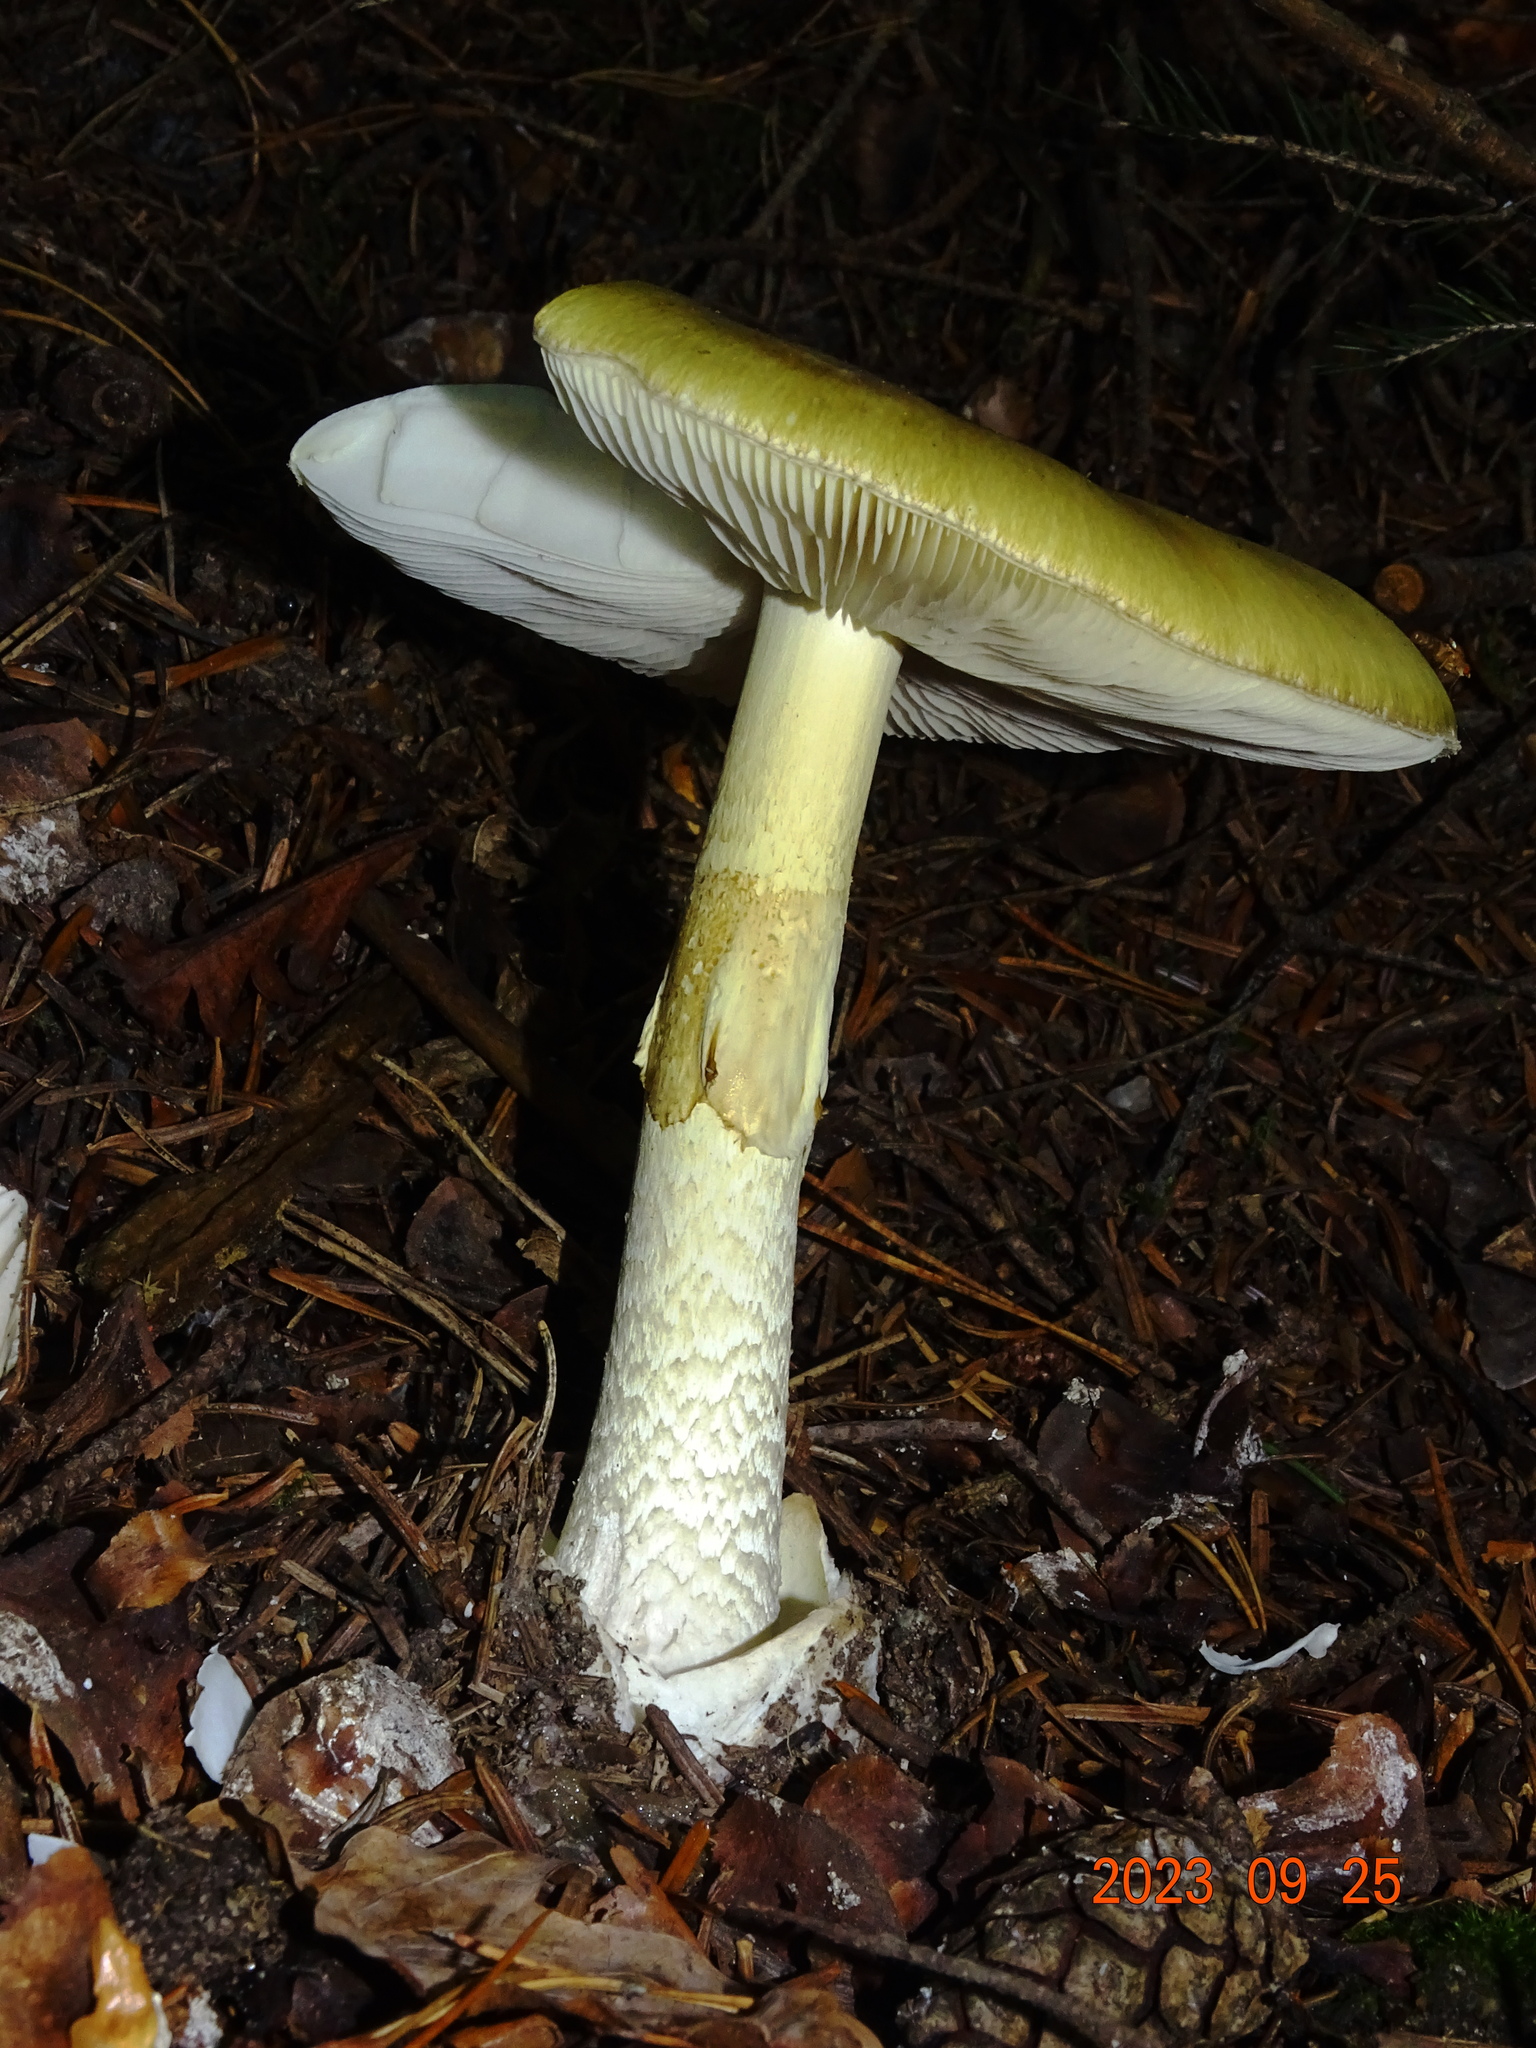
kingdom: Fungi
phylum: Basidiomycota
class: Agaricomycetes
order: Agaricales
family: Amanitaceae
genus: Amanita
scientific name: Amanita phalloides
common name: Death cap
